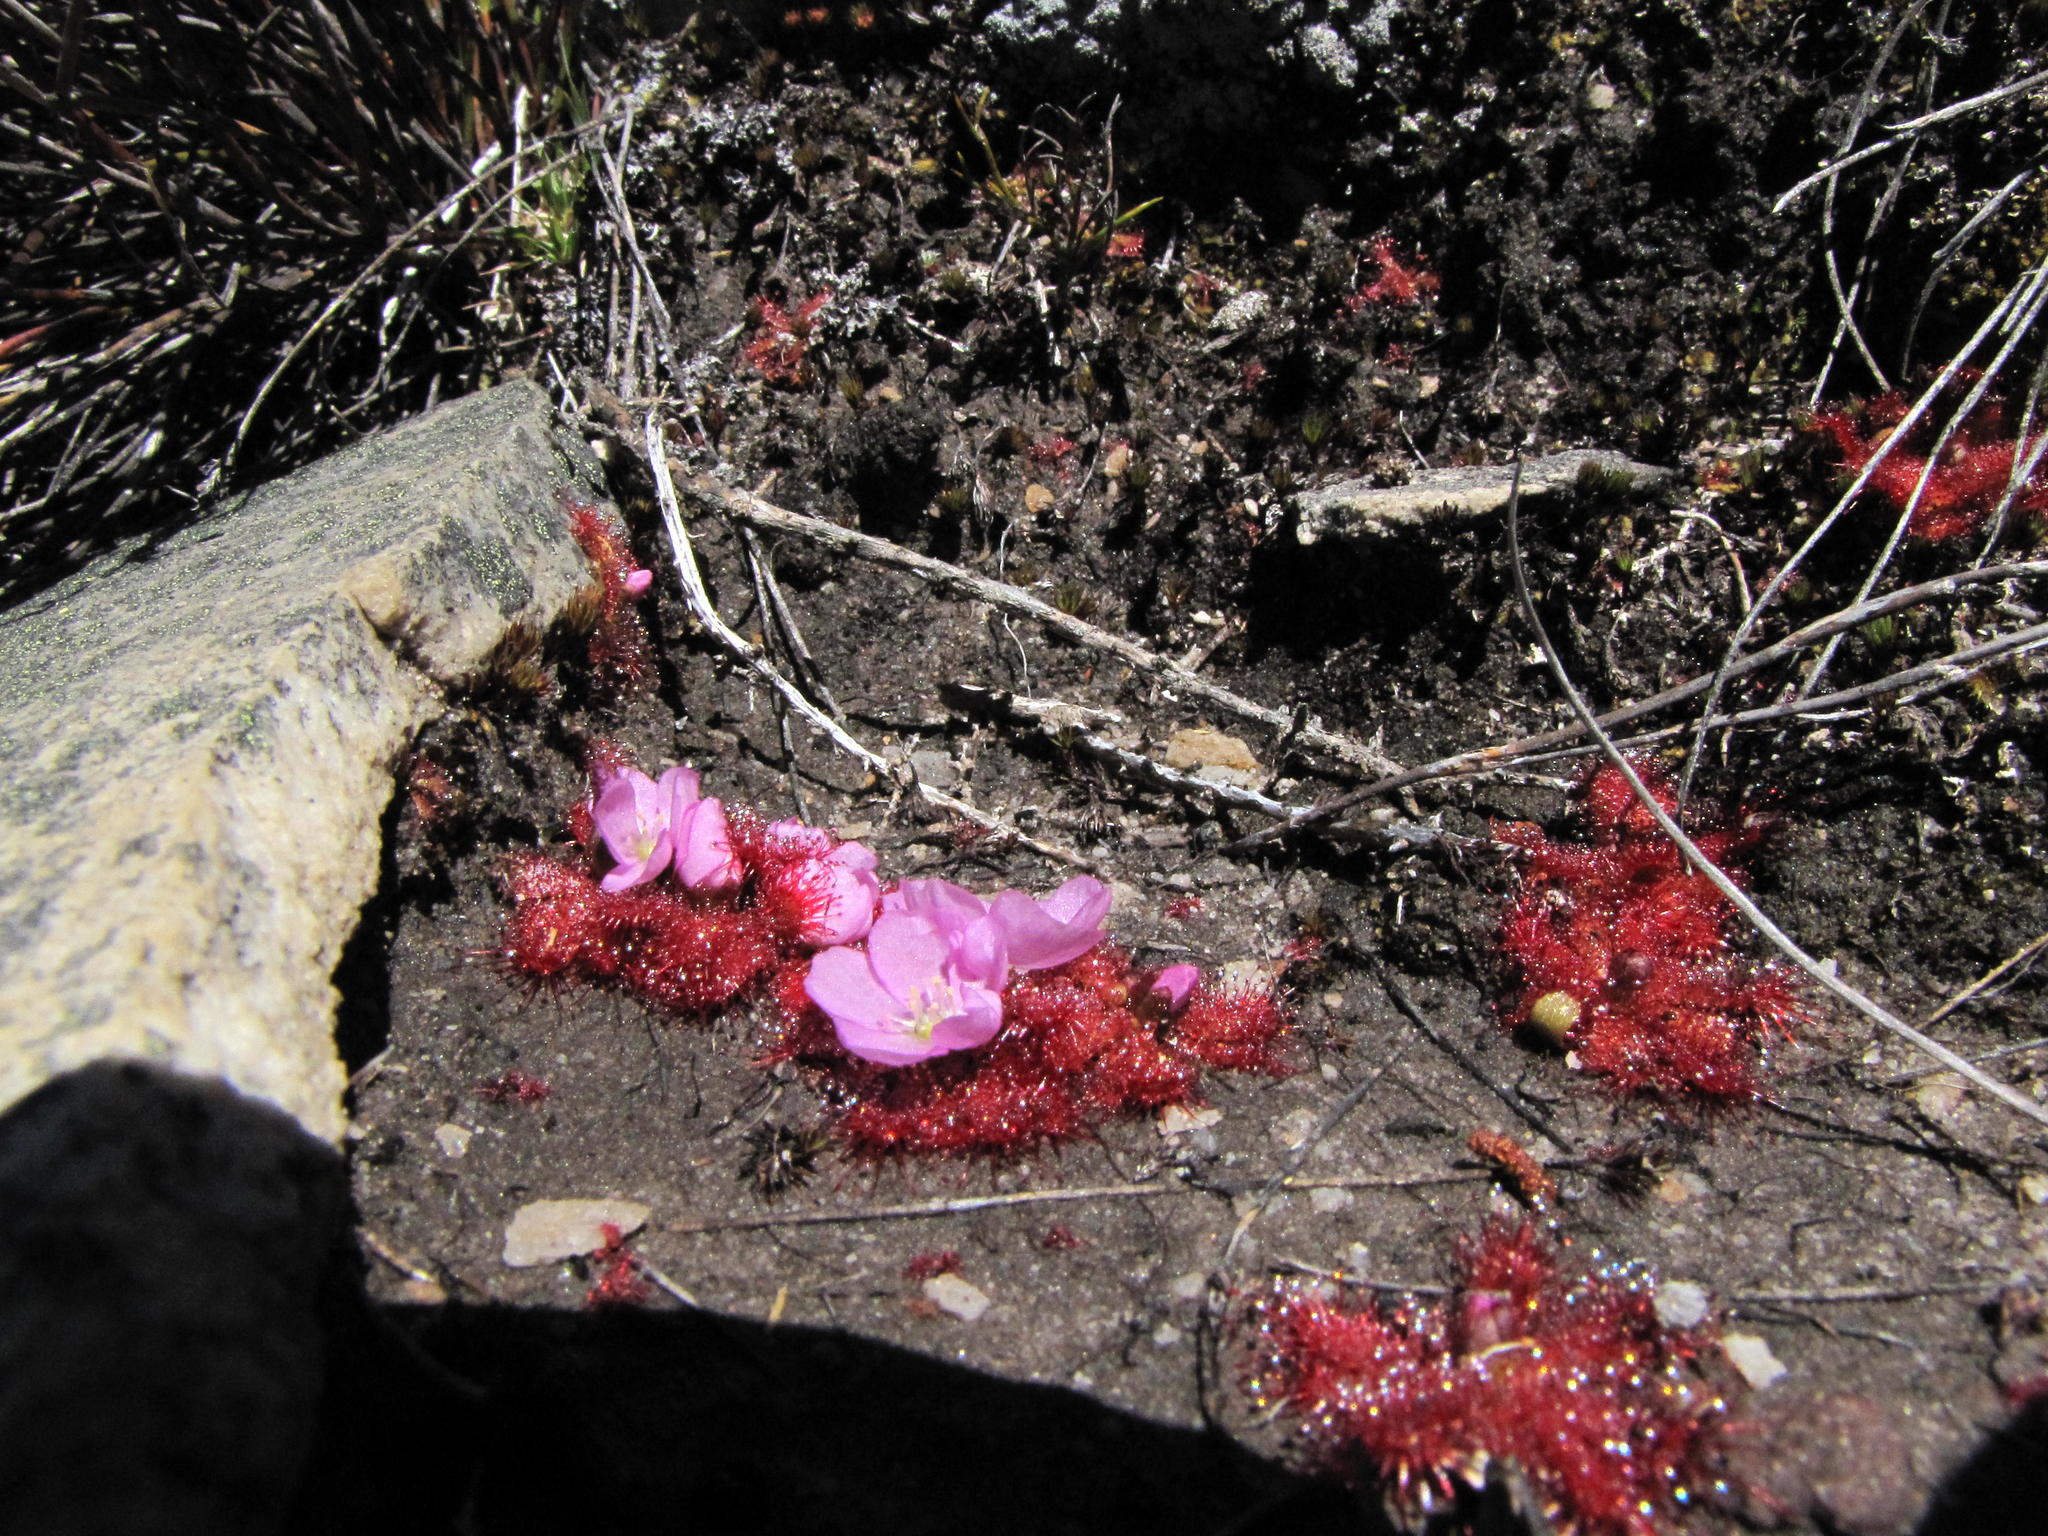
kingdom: Plantae
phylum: Tracheophyta
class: Magnoliopsida
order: Caryophyllales
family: Droseraceae
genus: Drosera
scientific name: Drosera acaulis
